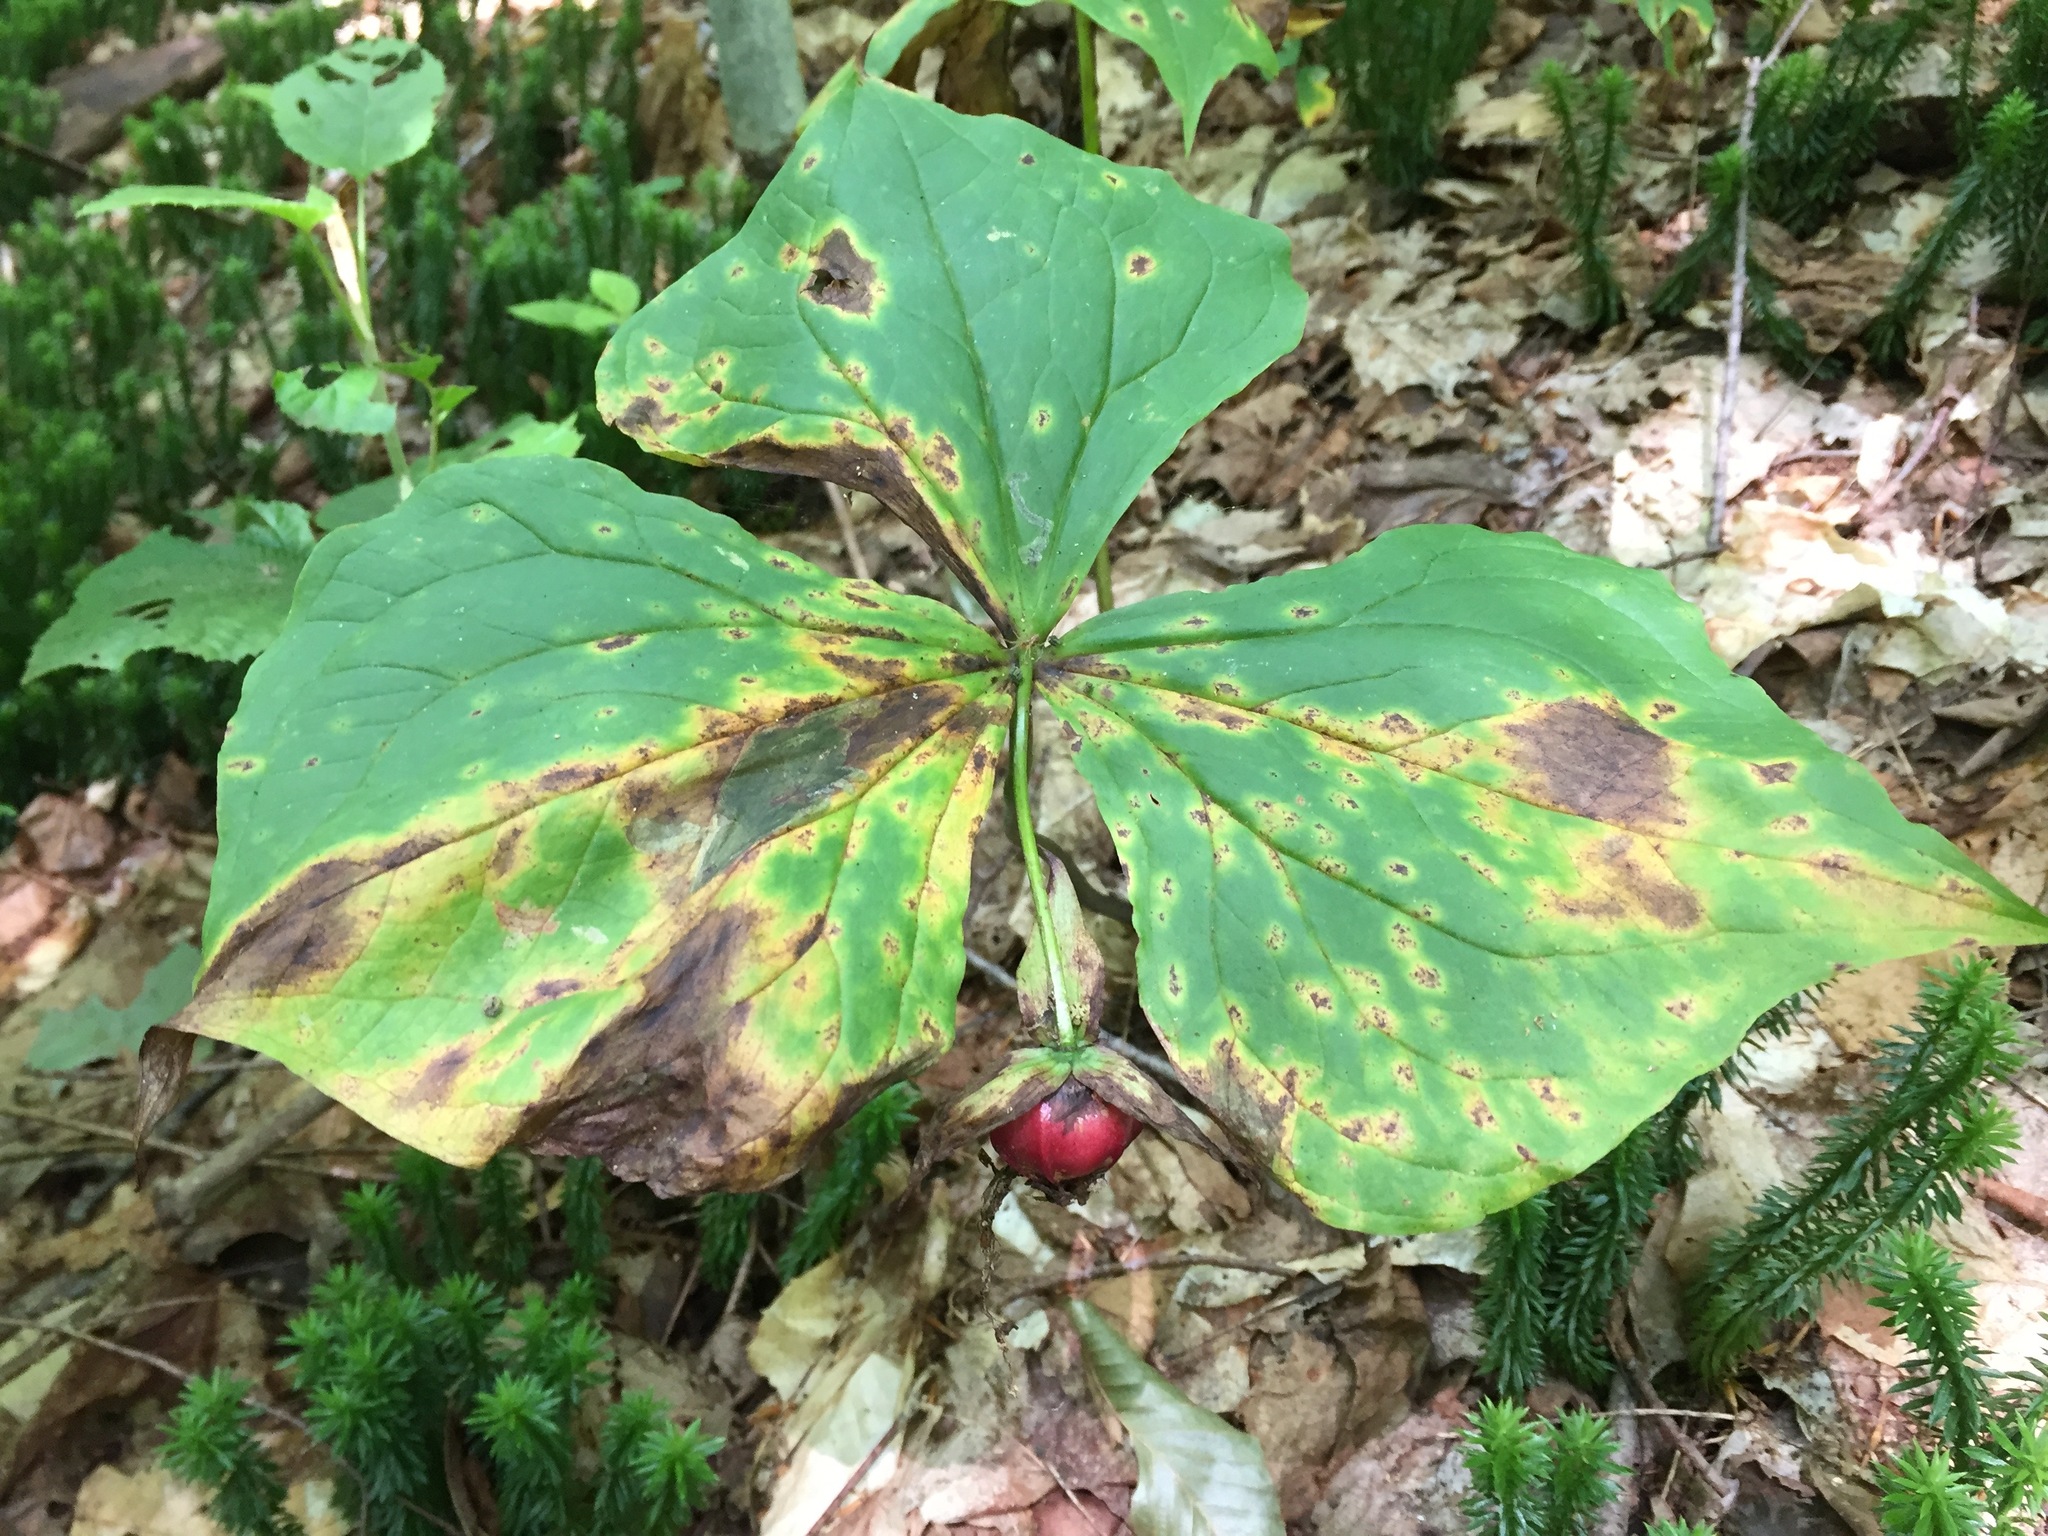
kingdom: Plantae
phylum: Tracheophyta
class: Liliopsida
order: Liliales
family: Melanthiaceae
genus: Trillium
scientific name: Trillium erectum
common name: Purple trillium
